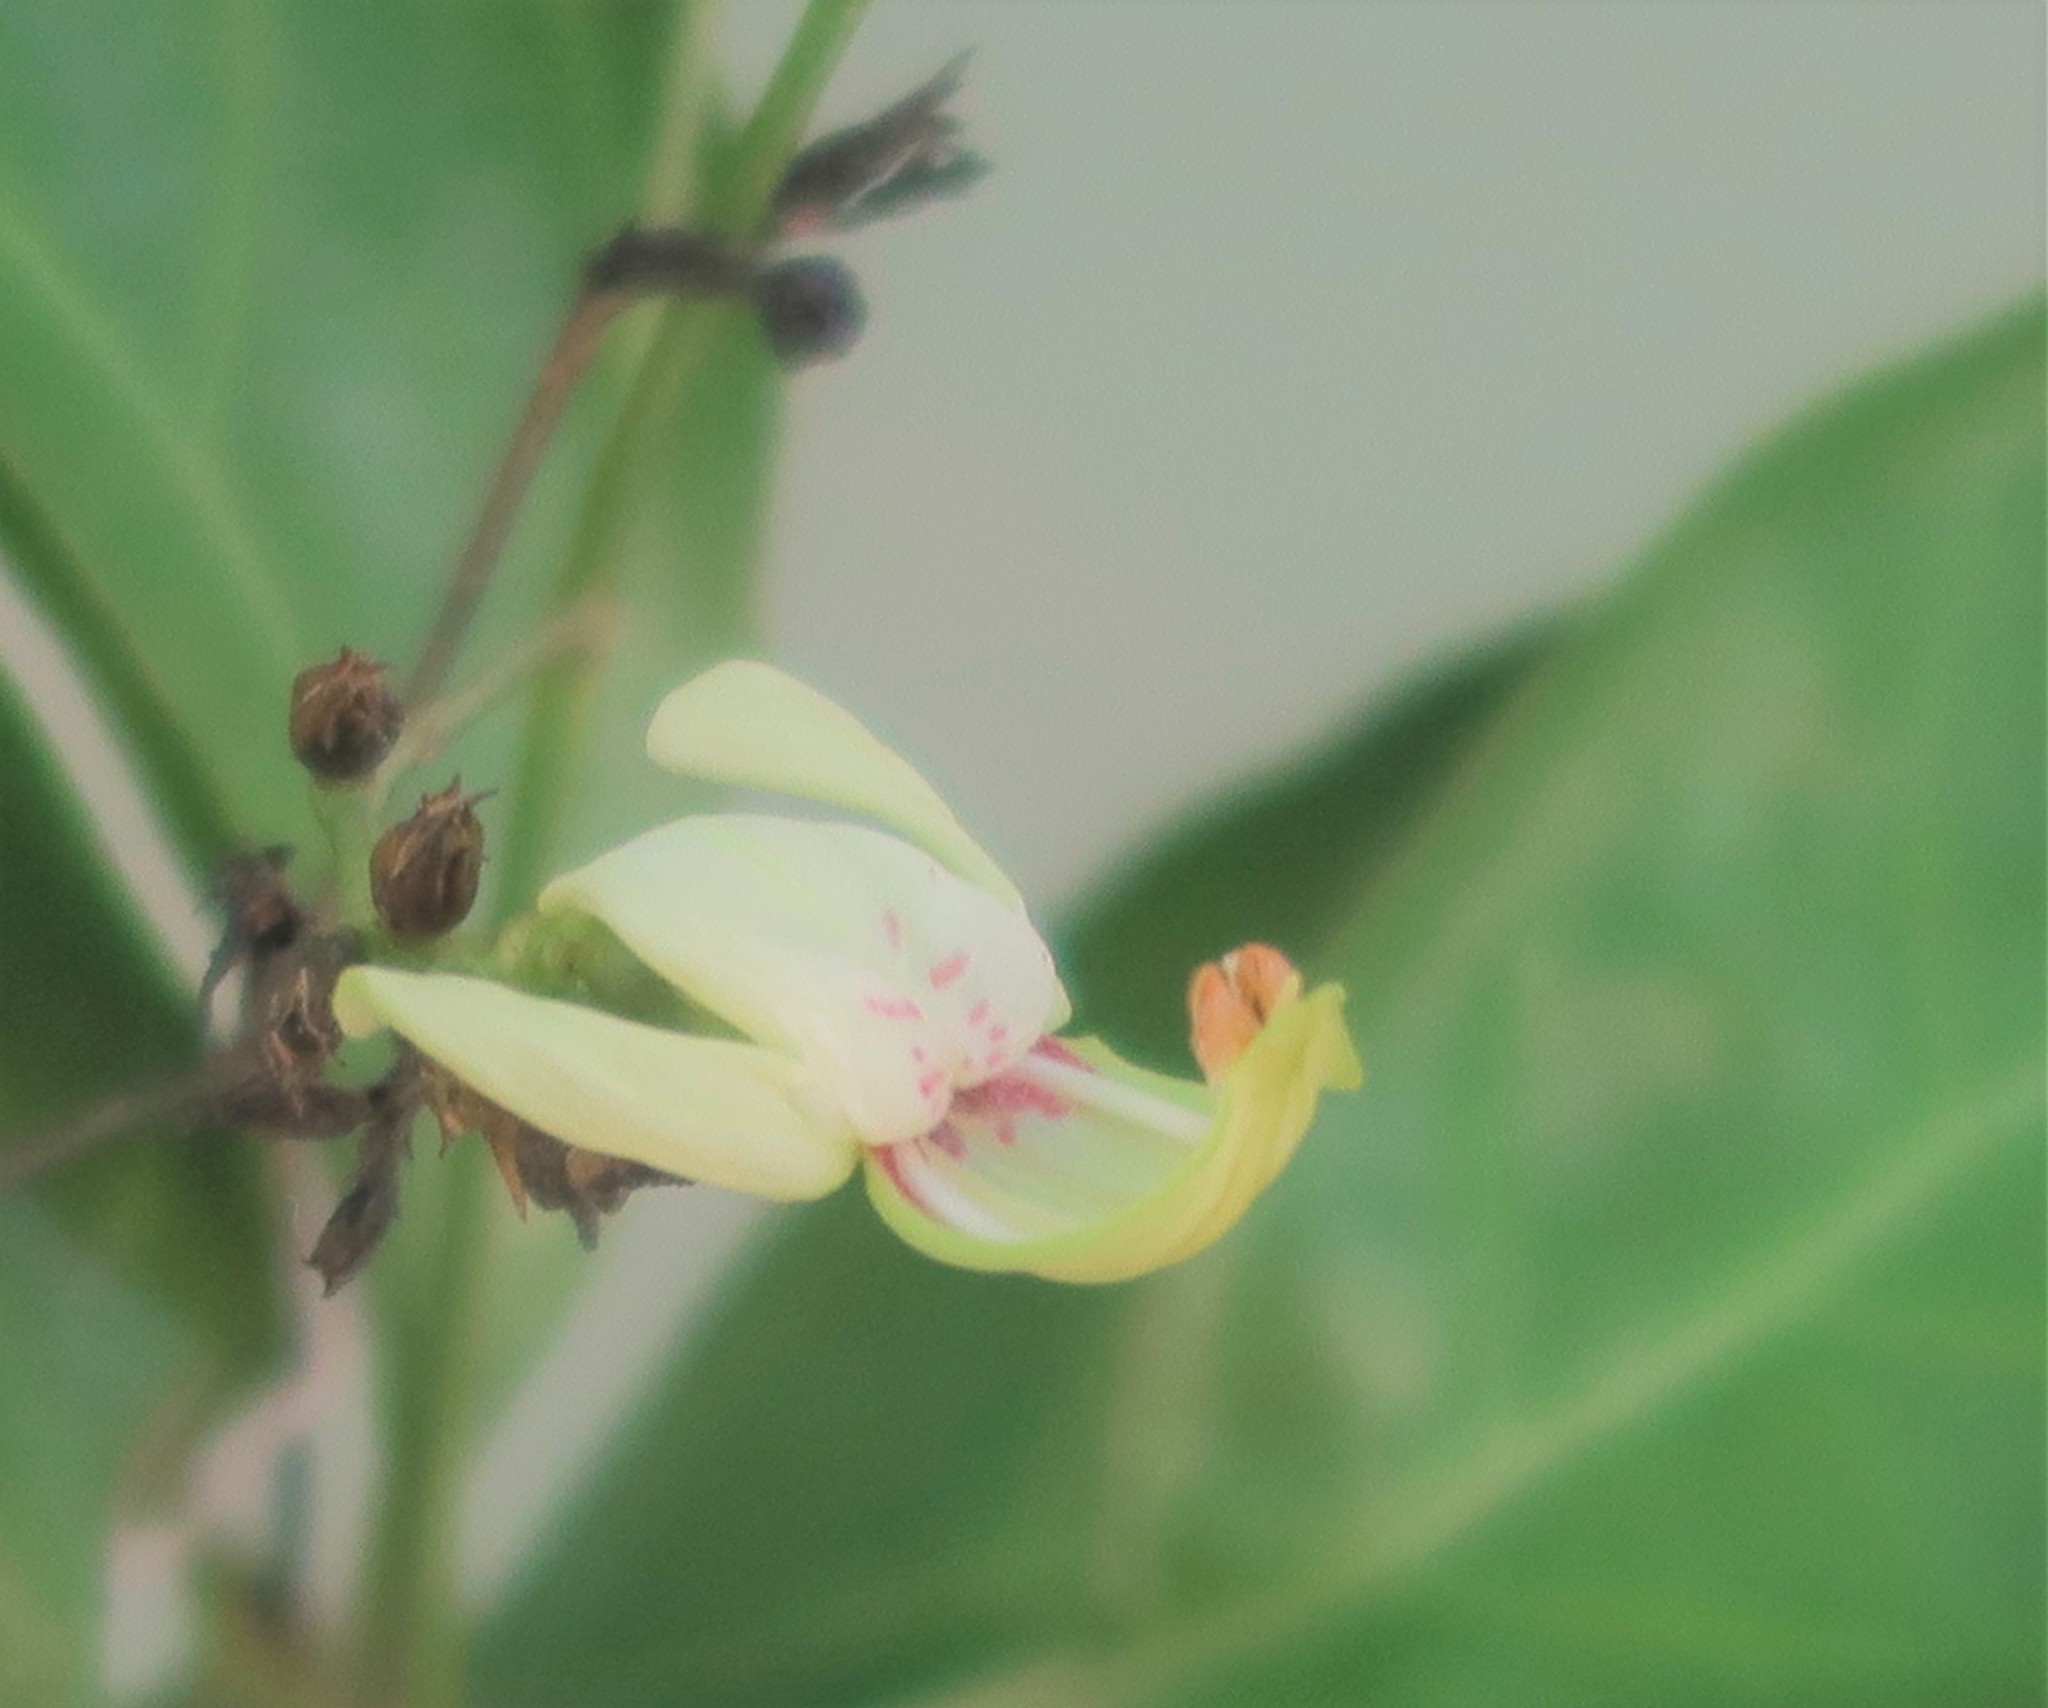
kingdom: Plantae
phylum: Tracheophyta
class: Magnoliopsida
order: Lamiales
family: Acanthaceae
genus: Justicia
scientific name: Justicia campylostemon
